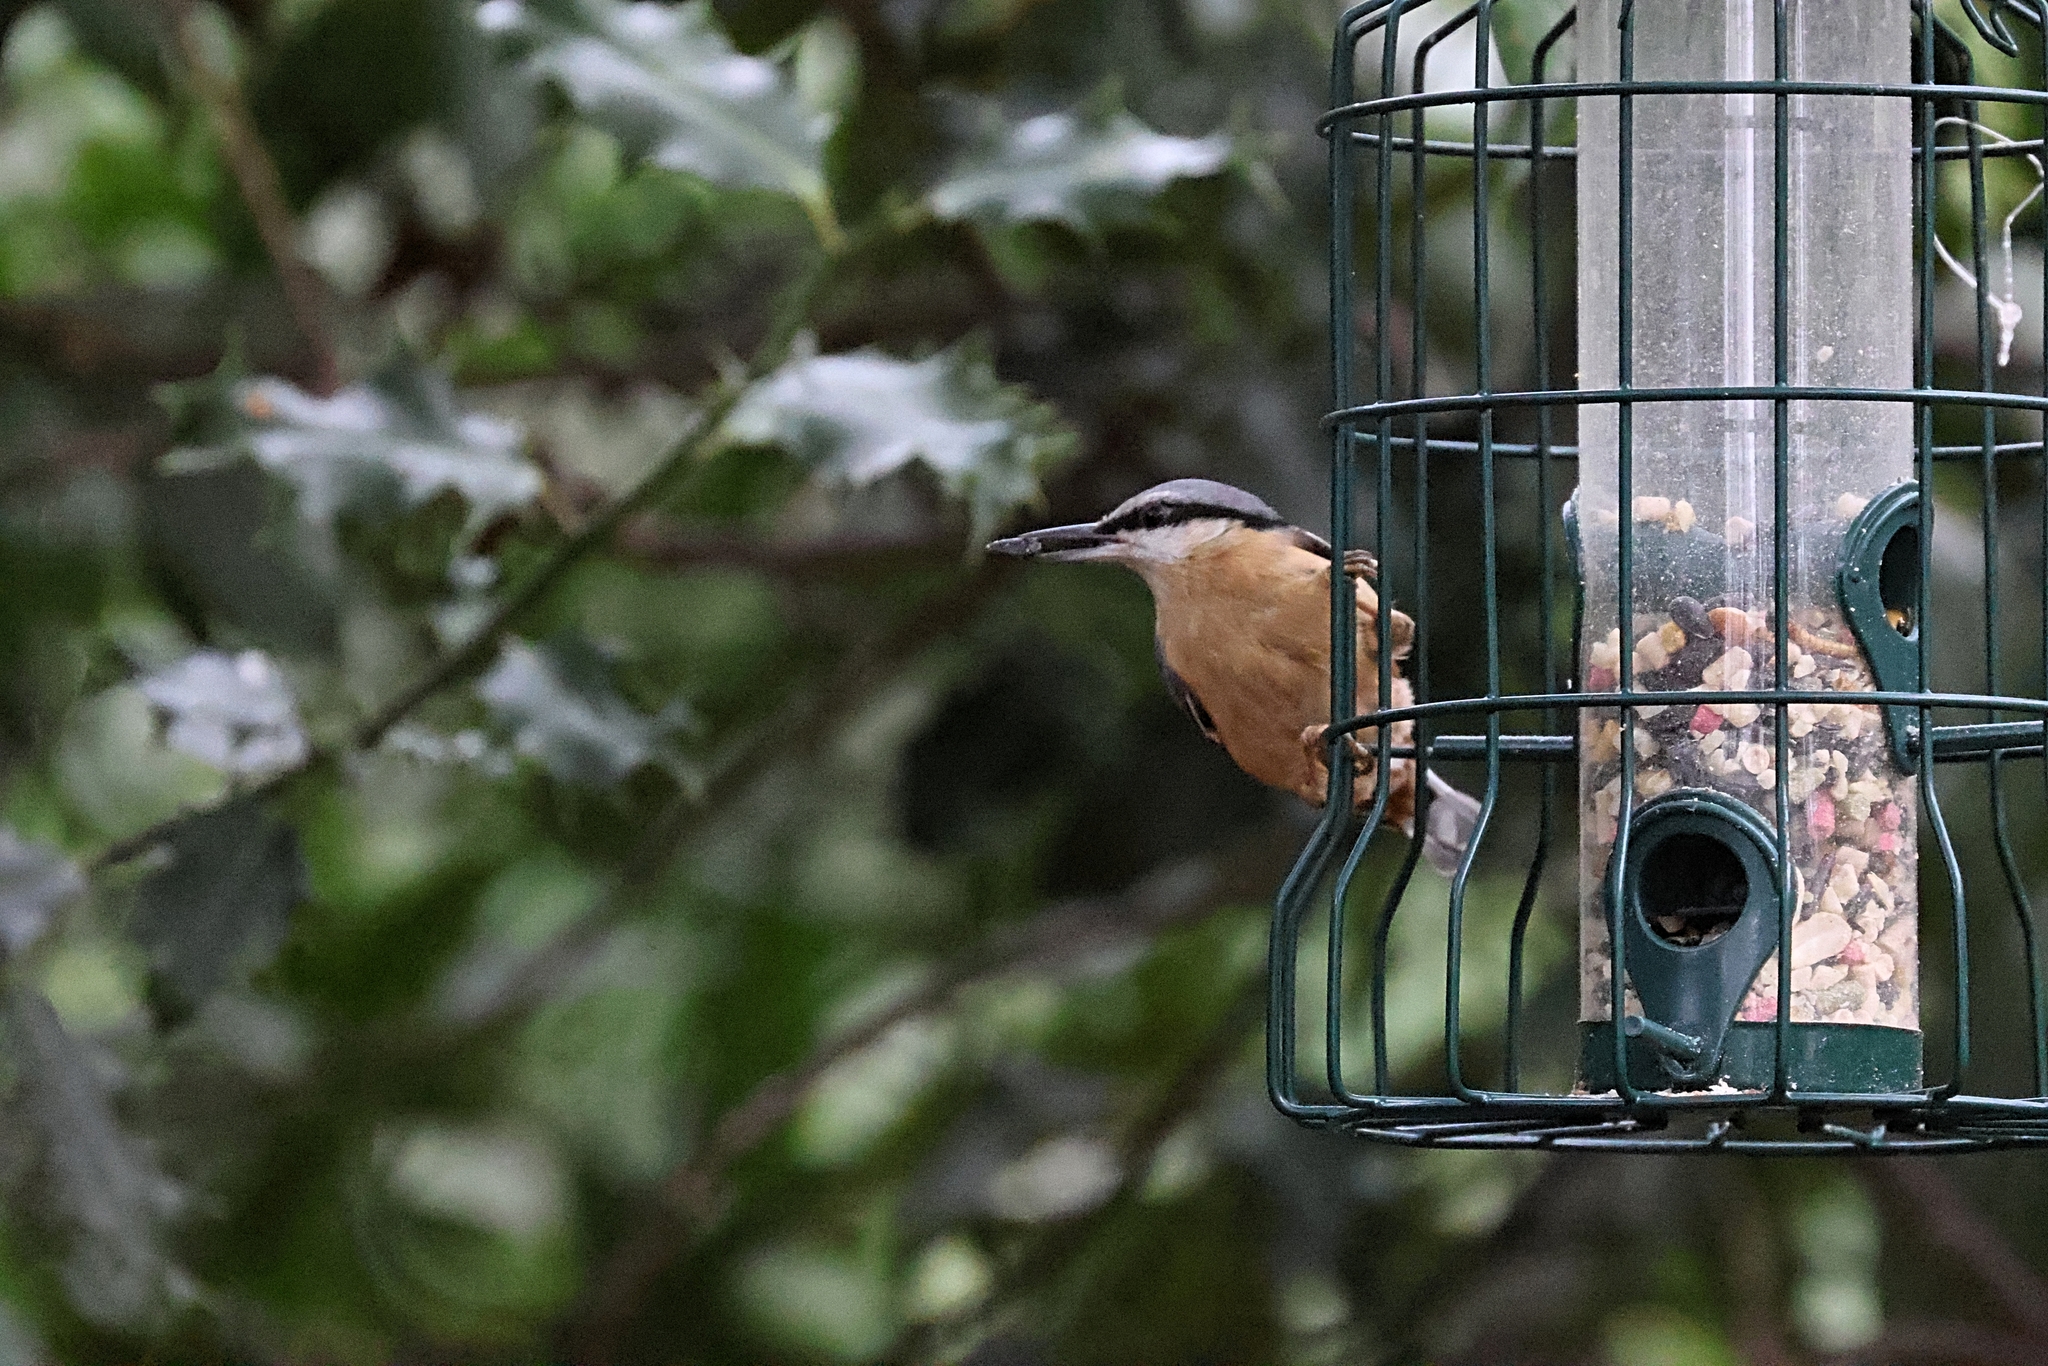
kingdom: Animalia
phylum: Chordata
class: Aves
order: Passeriformes
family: Sittidae
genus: Sitta
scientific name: Sitta europaea
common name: Eurasian nuthatch
